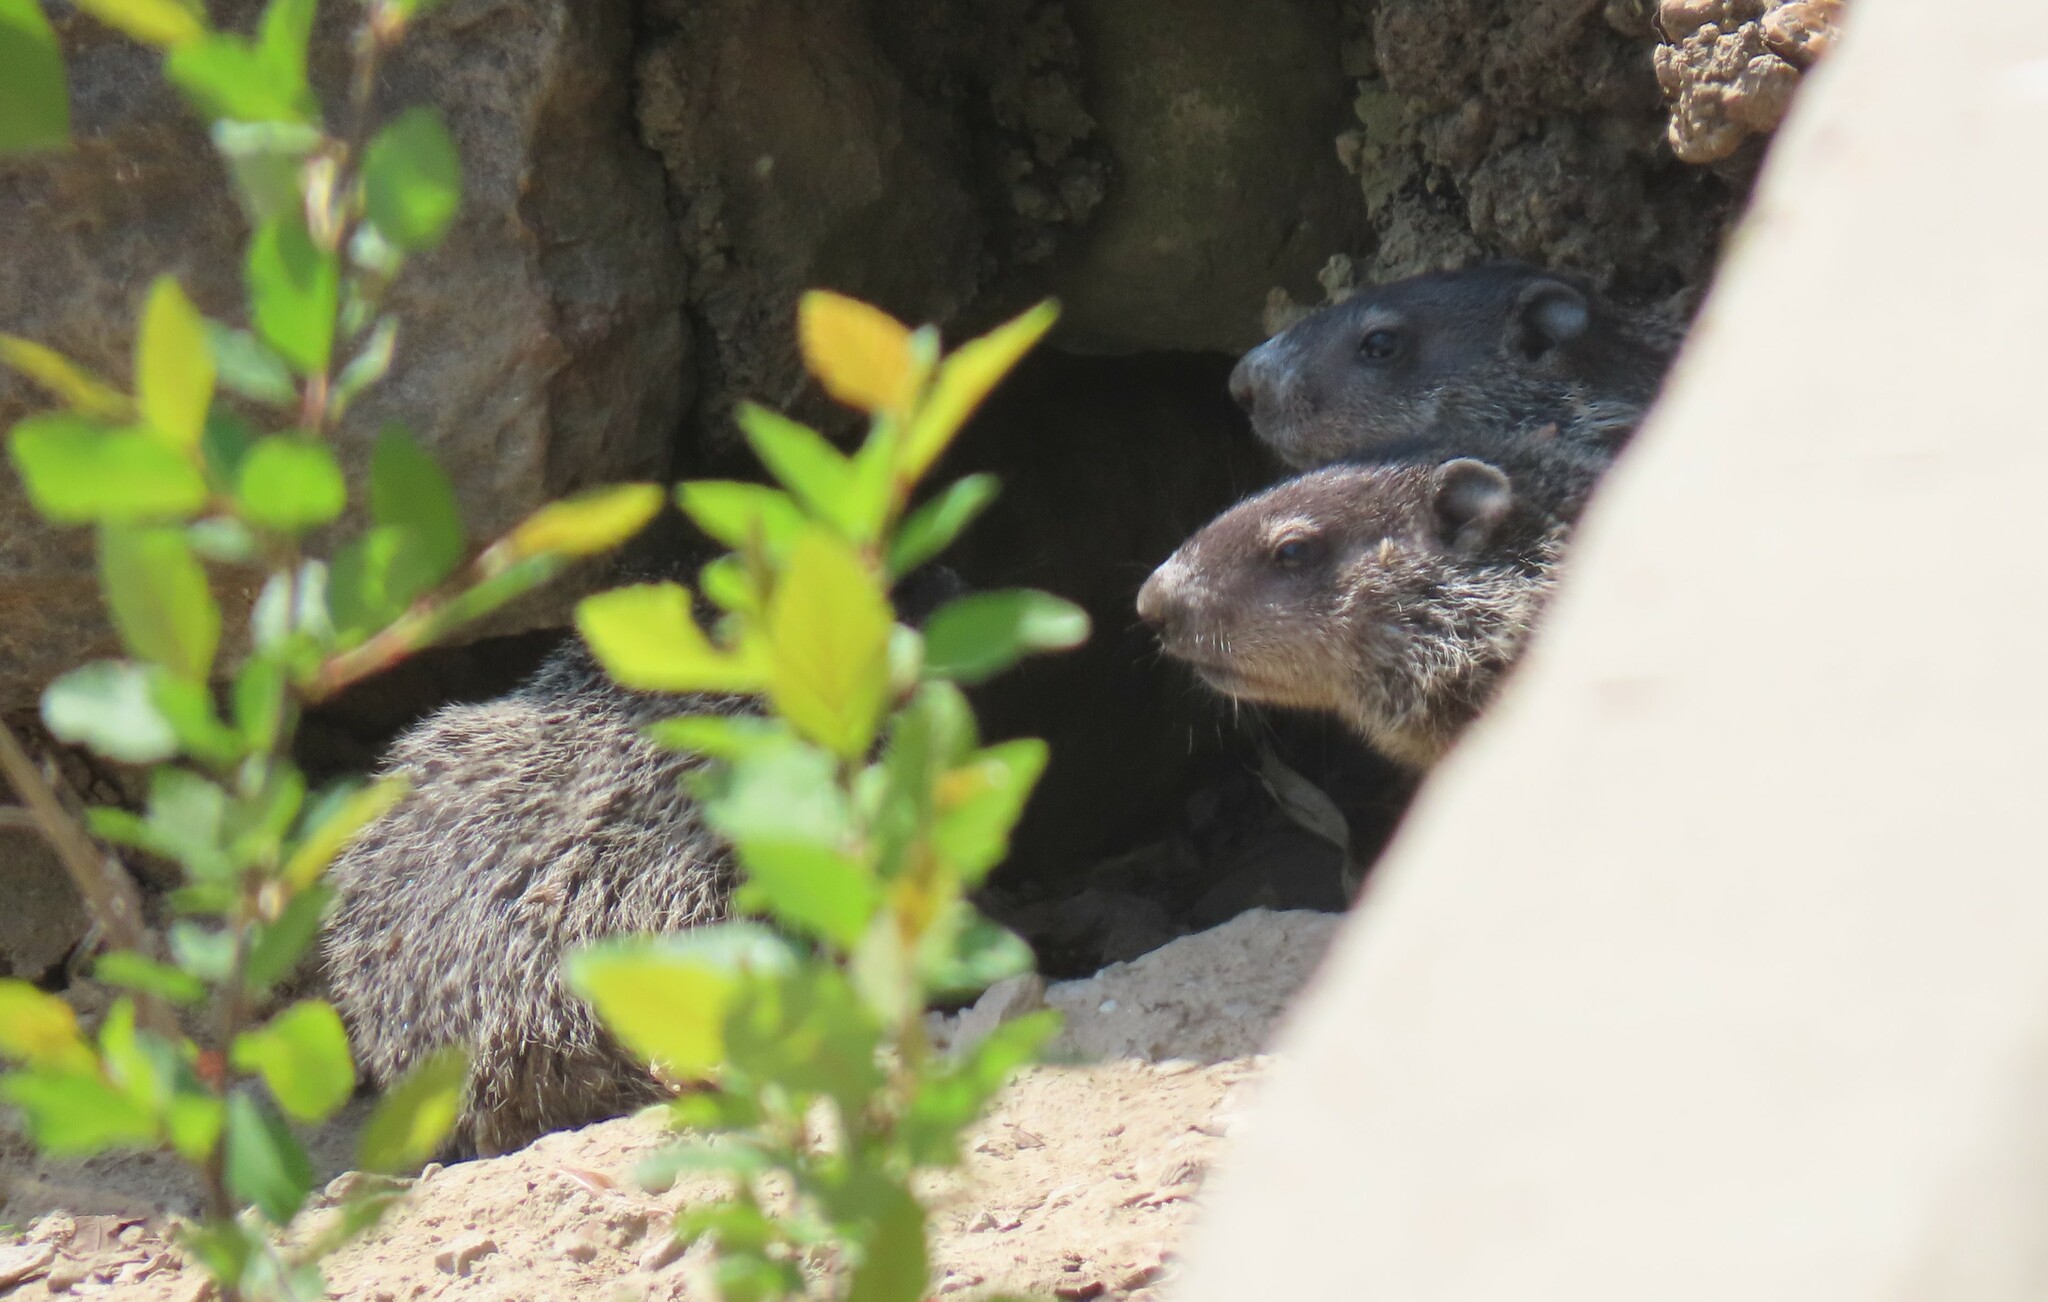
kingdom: Animalia
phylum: Chordata
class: Mammalia
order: Rodentia
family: Sciuridae
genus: Marmota
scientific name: Marmota monax
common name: Groundhog
